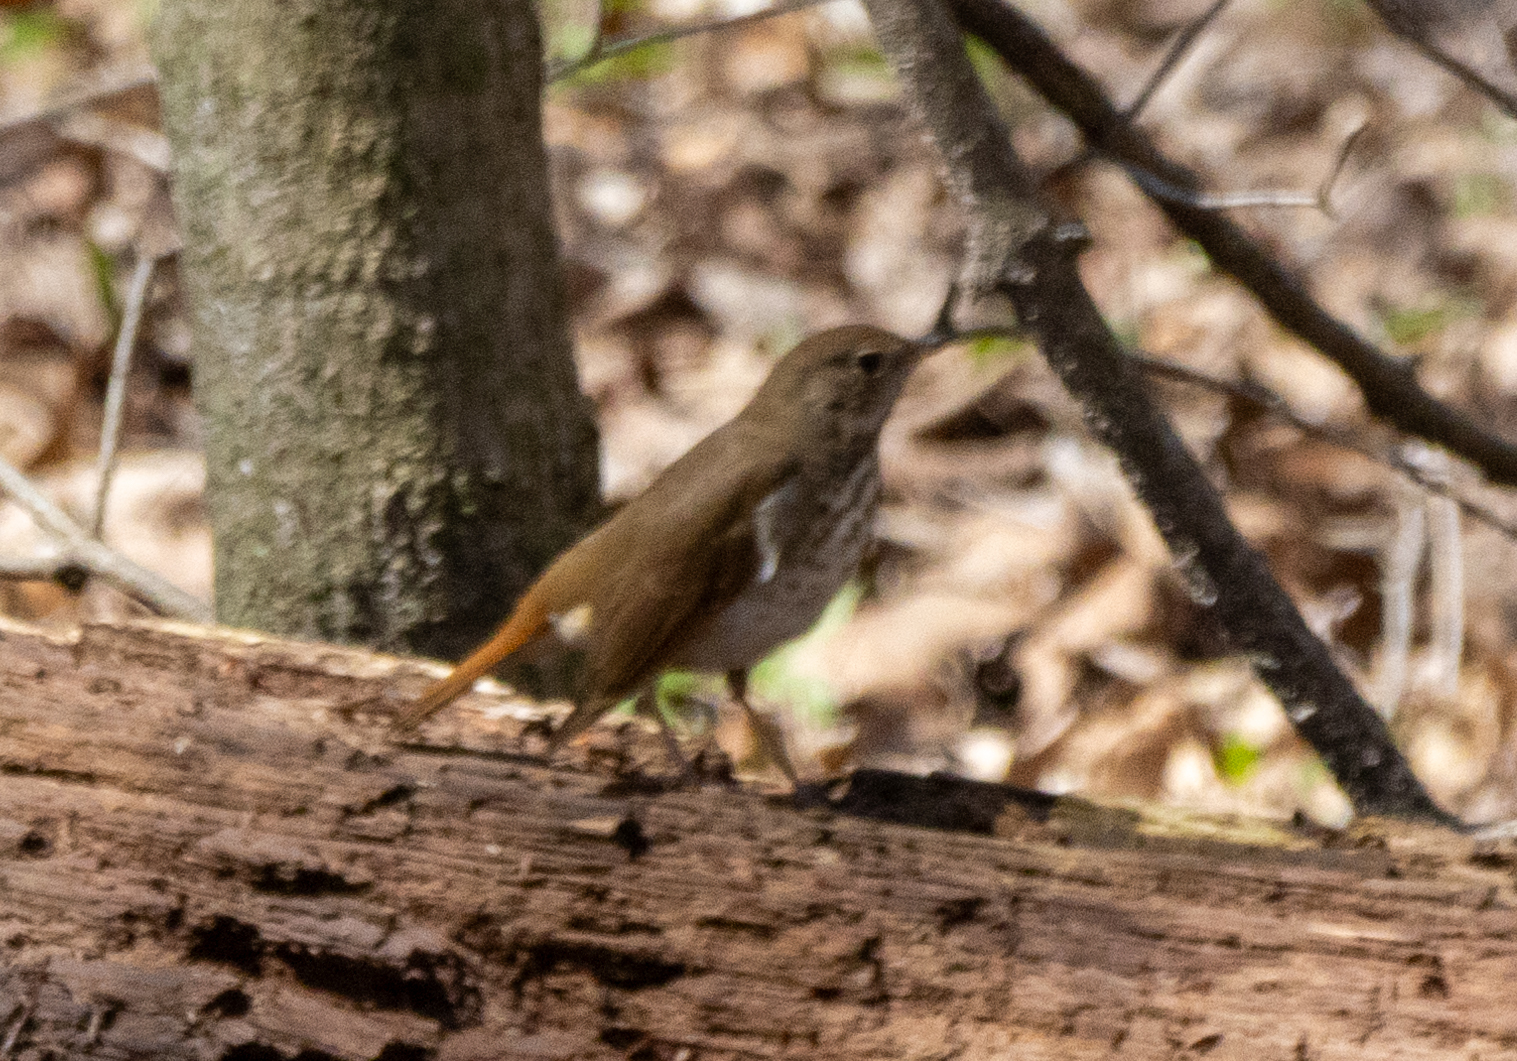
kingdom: Animalia
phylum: Chordata
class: Aves
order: Passeriformes
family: Turdidae
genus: Catharus
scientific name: Catharus guttatus
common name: Hermit thrush
